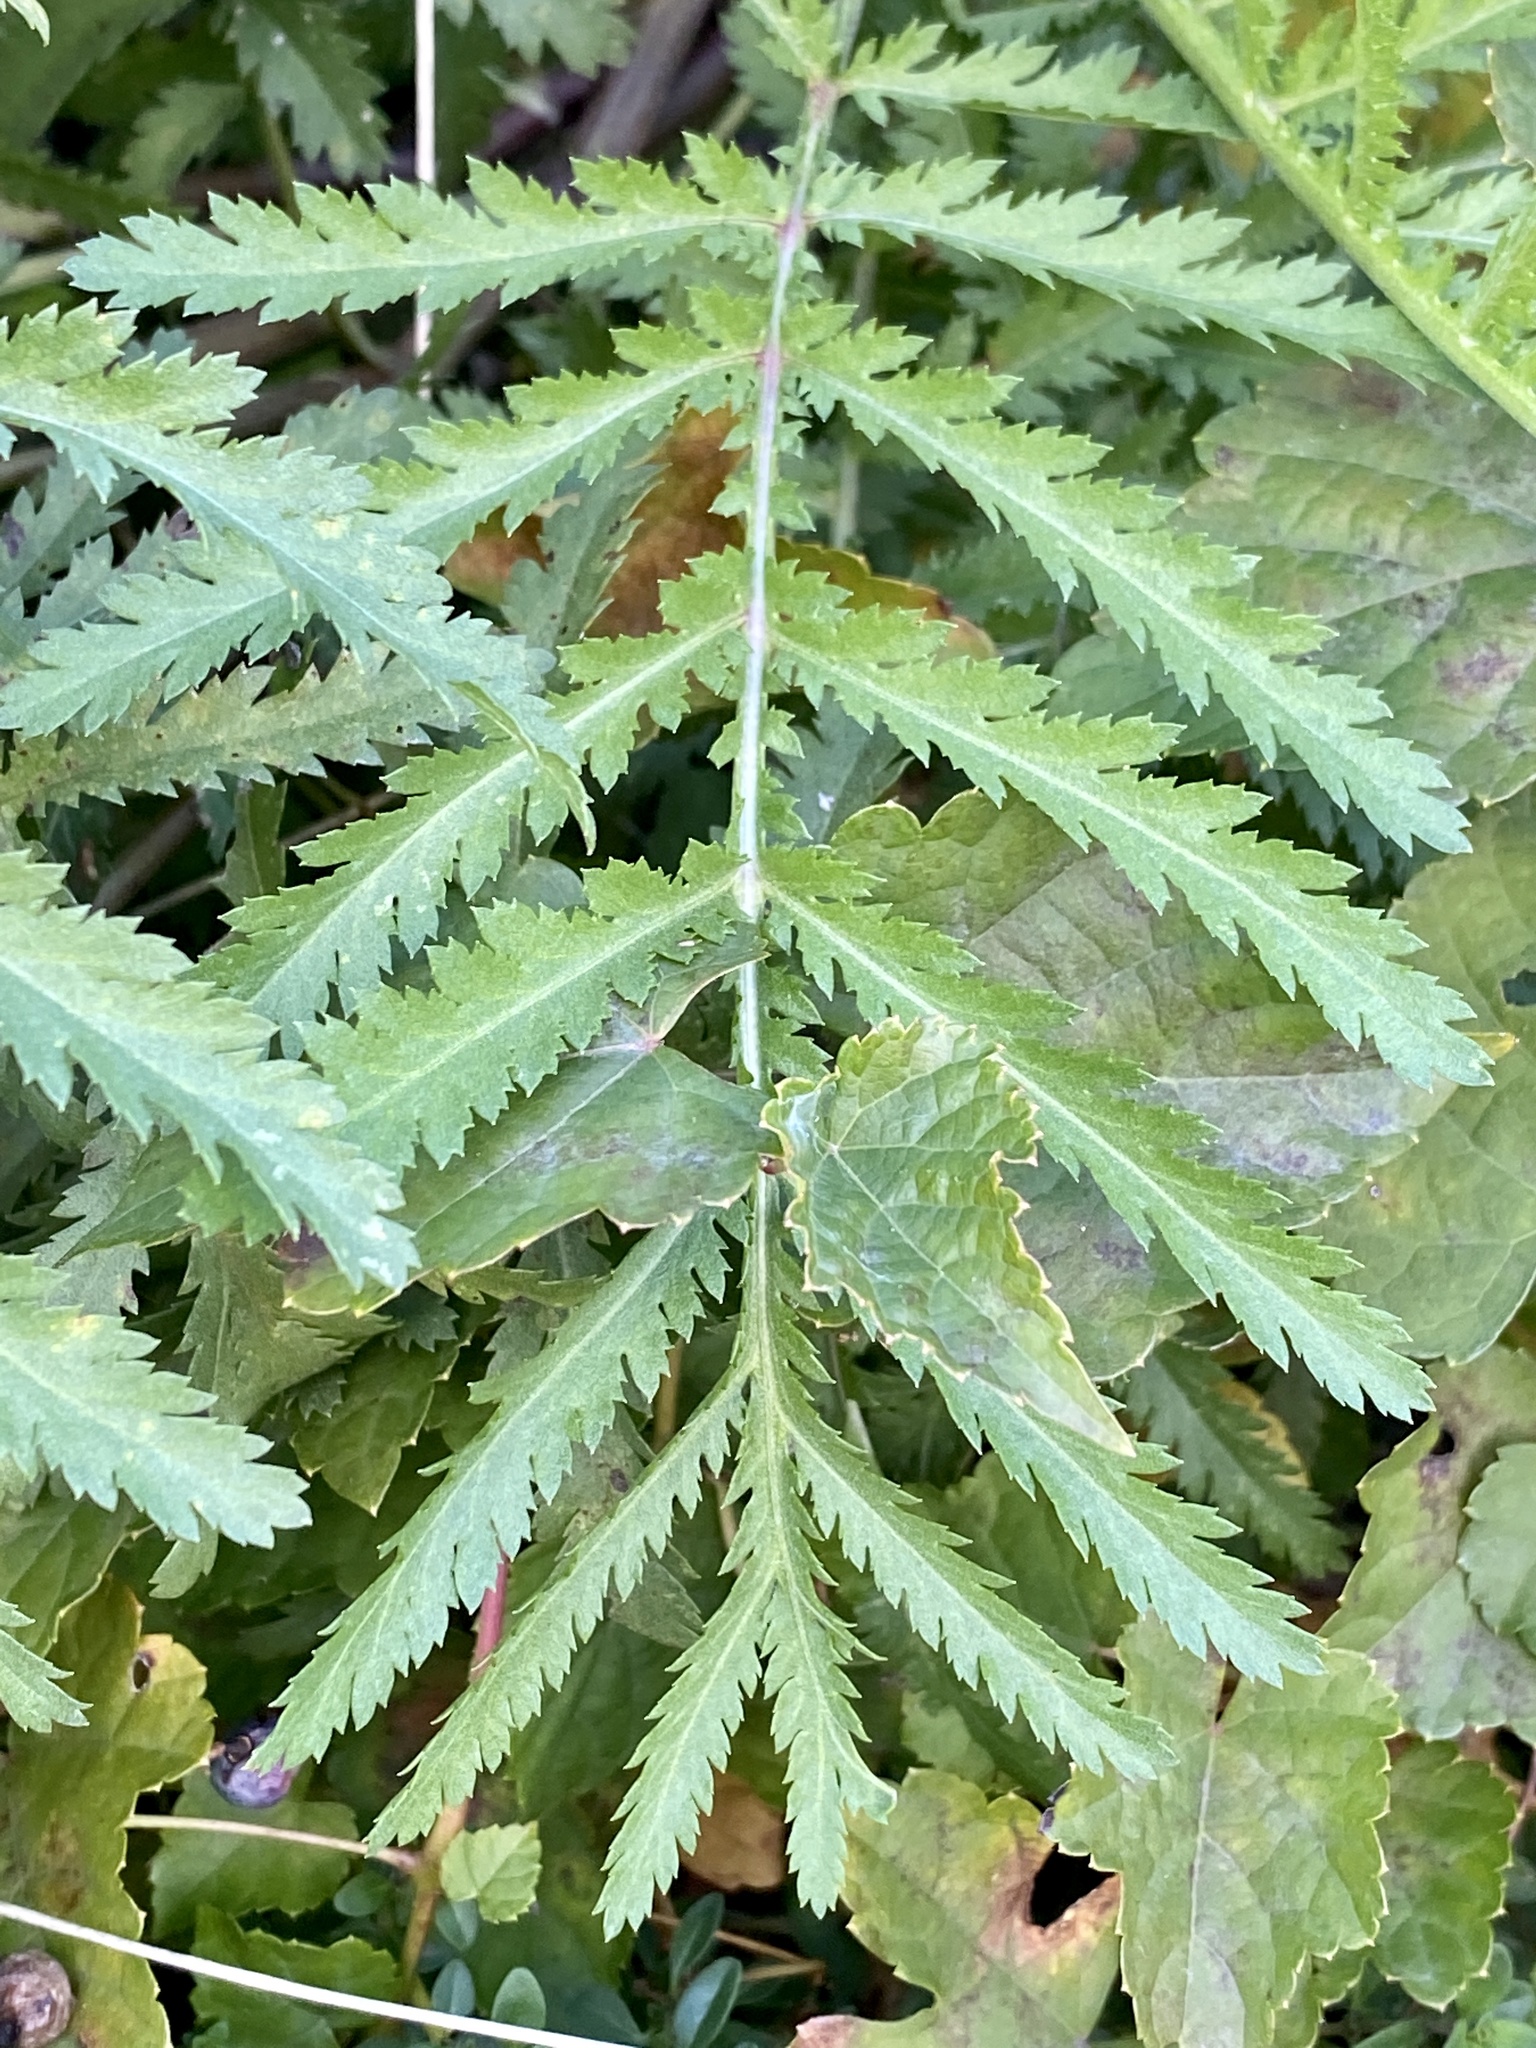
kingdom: Plantae
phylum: Tracheophyta
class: Magnoliopsida
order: Asterales
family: Asteraceae
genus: Tanacetum
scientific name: Tanacetum vulgare
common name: Common tansy
